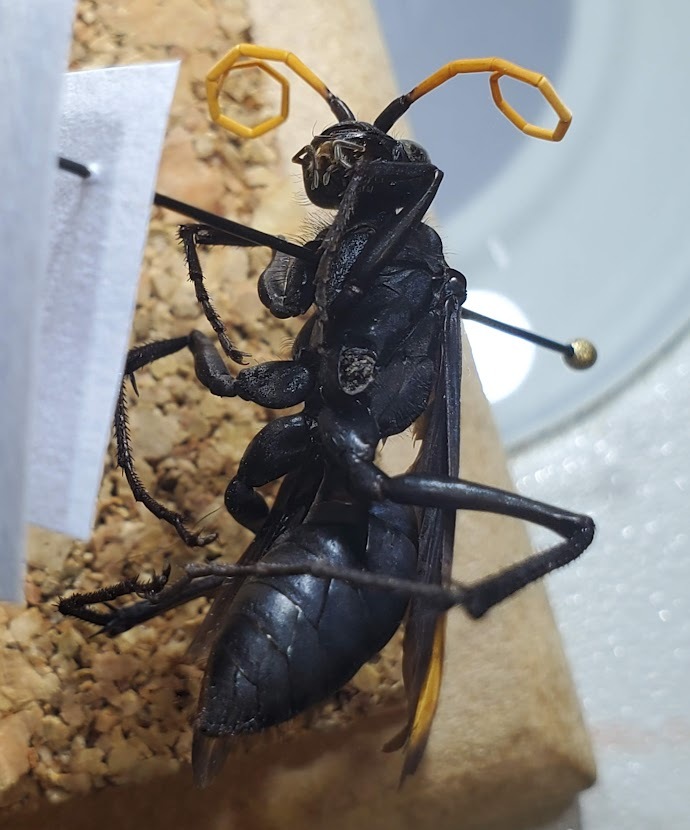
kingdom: Animalia
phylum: Arthropoda
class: Insecta
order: Hymenoptera
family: Pompilidae
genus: Entypus
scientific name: Entypus unifasciatus
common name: Eastern tawny-horned spider wasp
